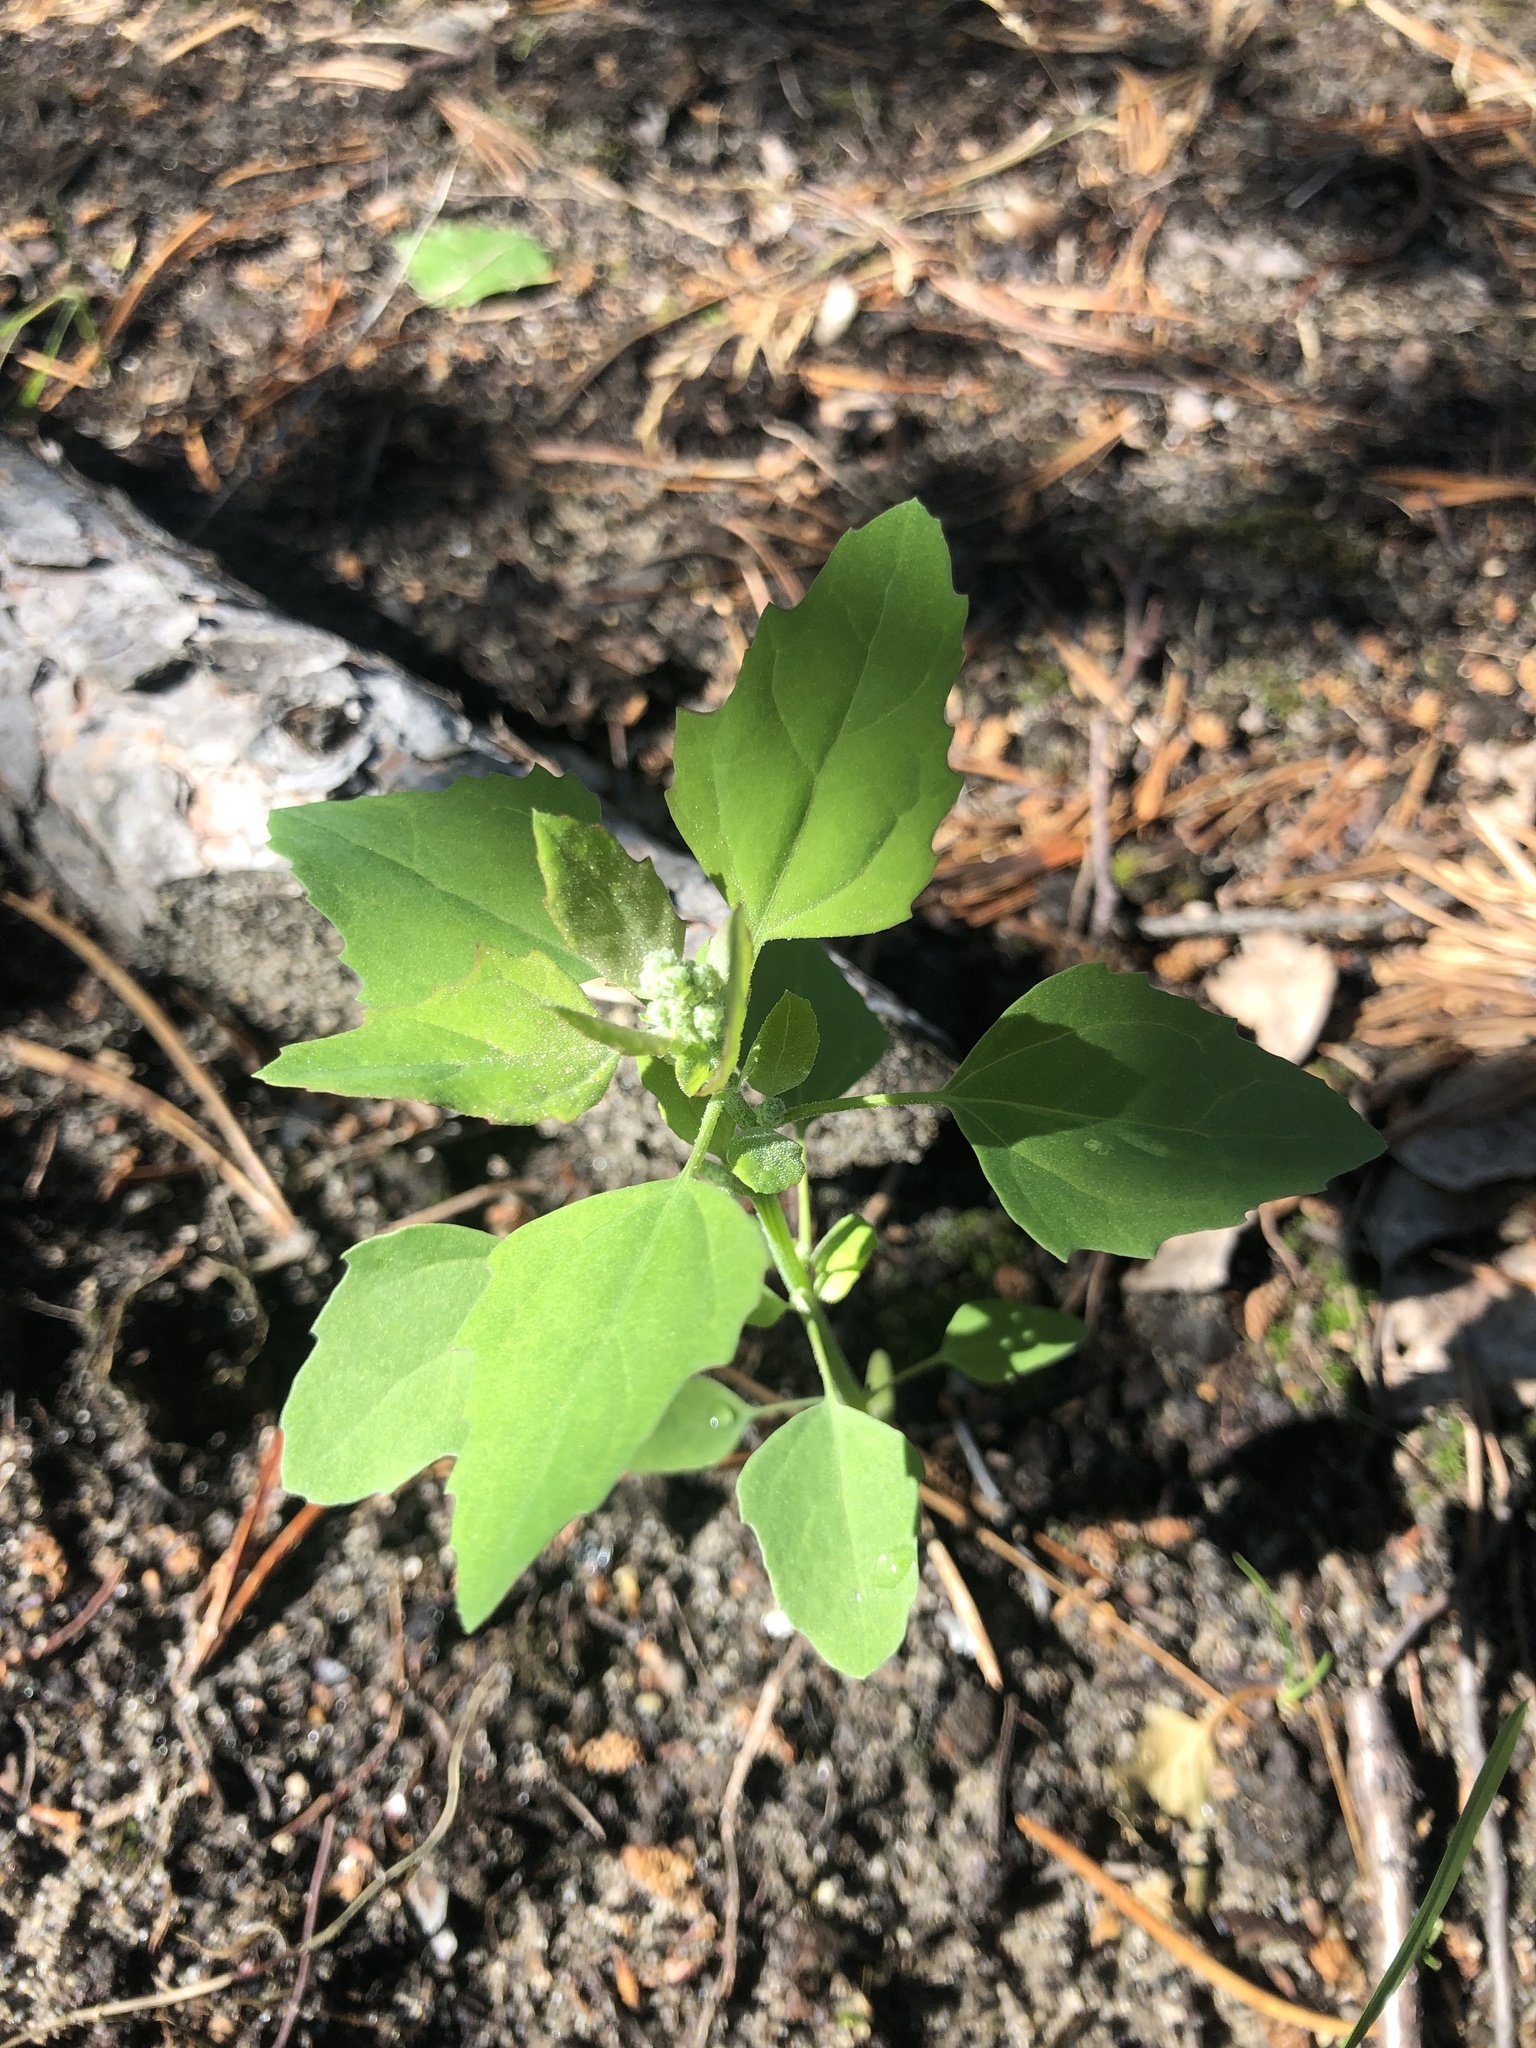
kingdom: Plantae
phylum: Tracheophyta
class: Magnoliopsida
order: Caryophyllales
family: Amaranthaceae
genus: Chenopodium
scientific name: Chenopodium album
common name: Fat-hen
